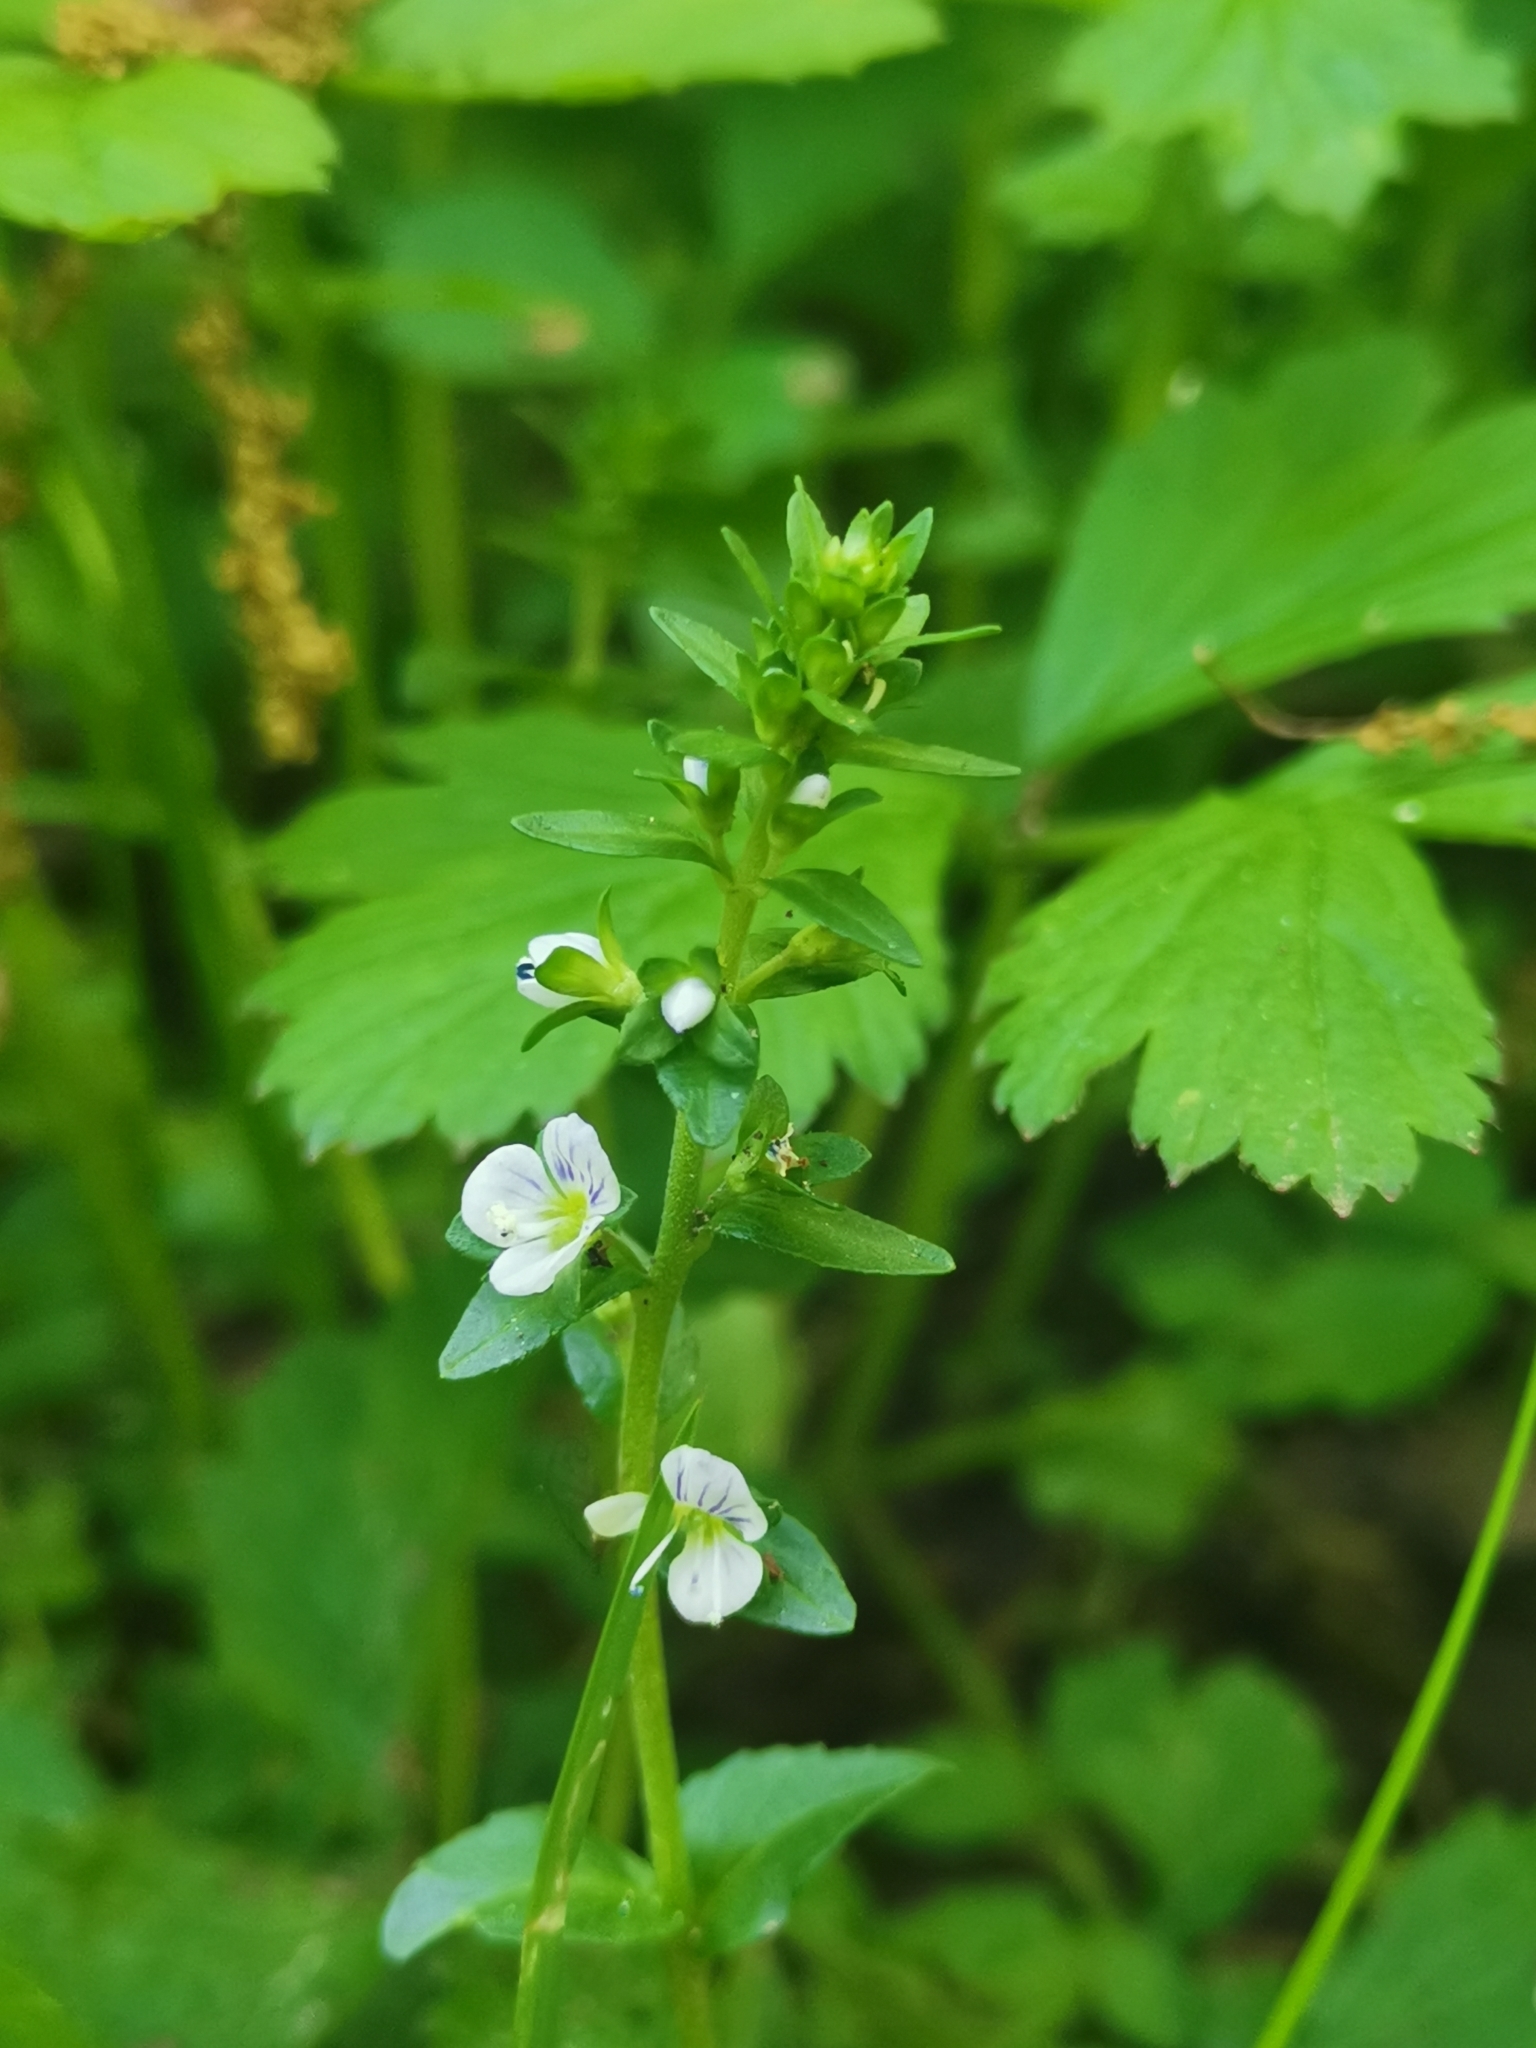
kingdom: Plantae
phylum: Tracheophyta
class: Magnoliopsida
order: Lamiales
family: Plantaginaceae
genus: Veronica
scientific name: Veronica serpyllifolia
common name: Thyme-leaved speedwell
